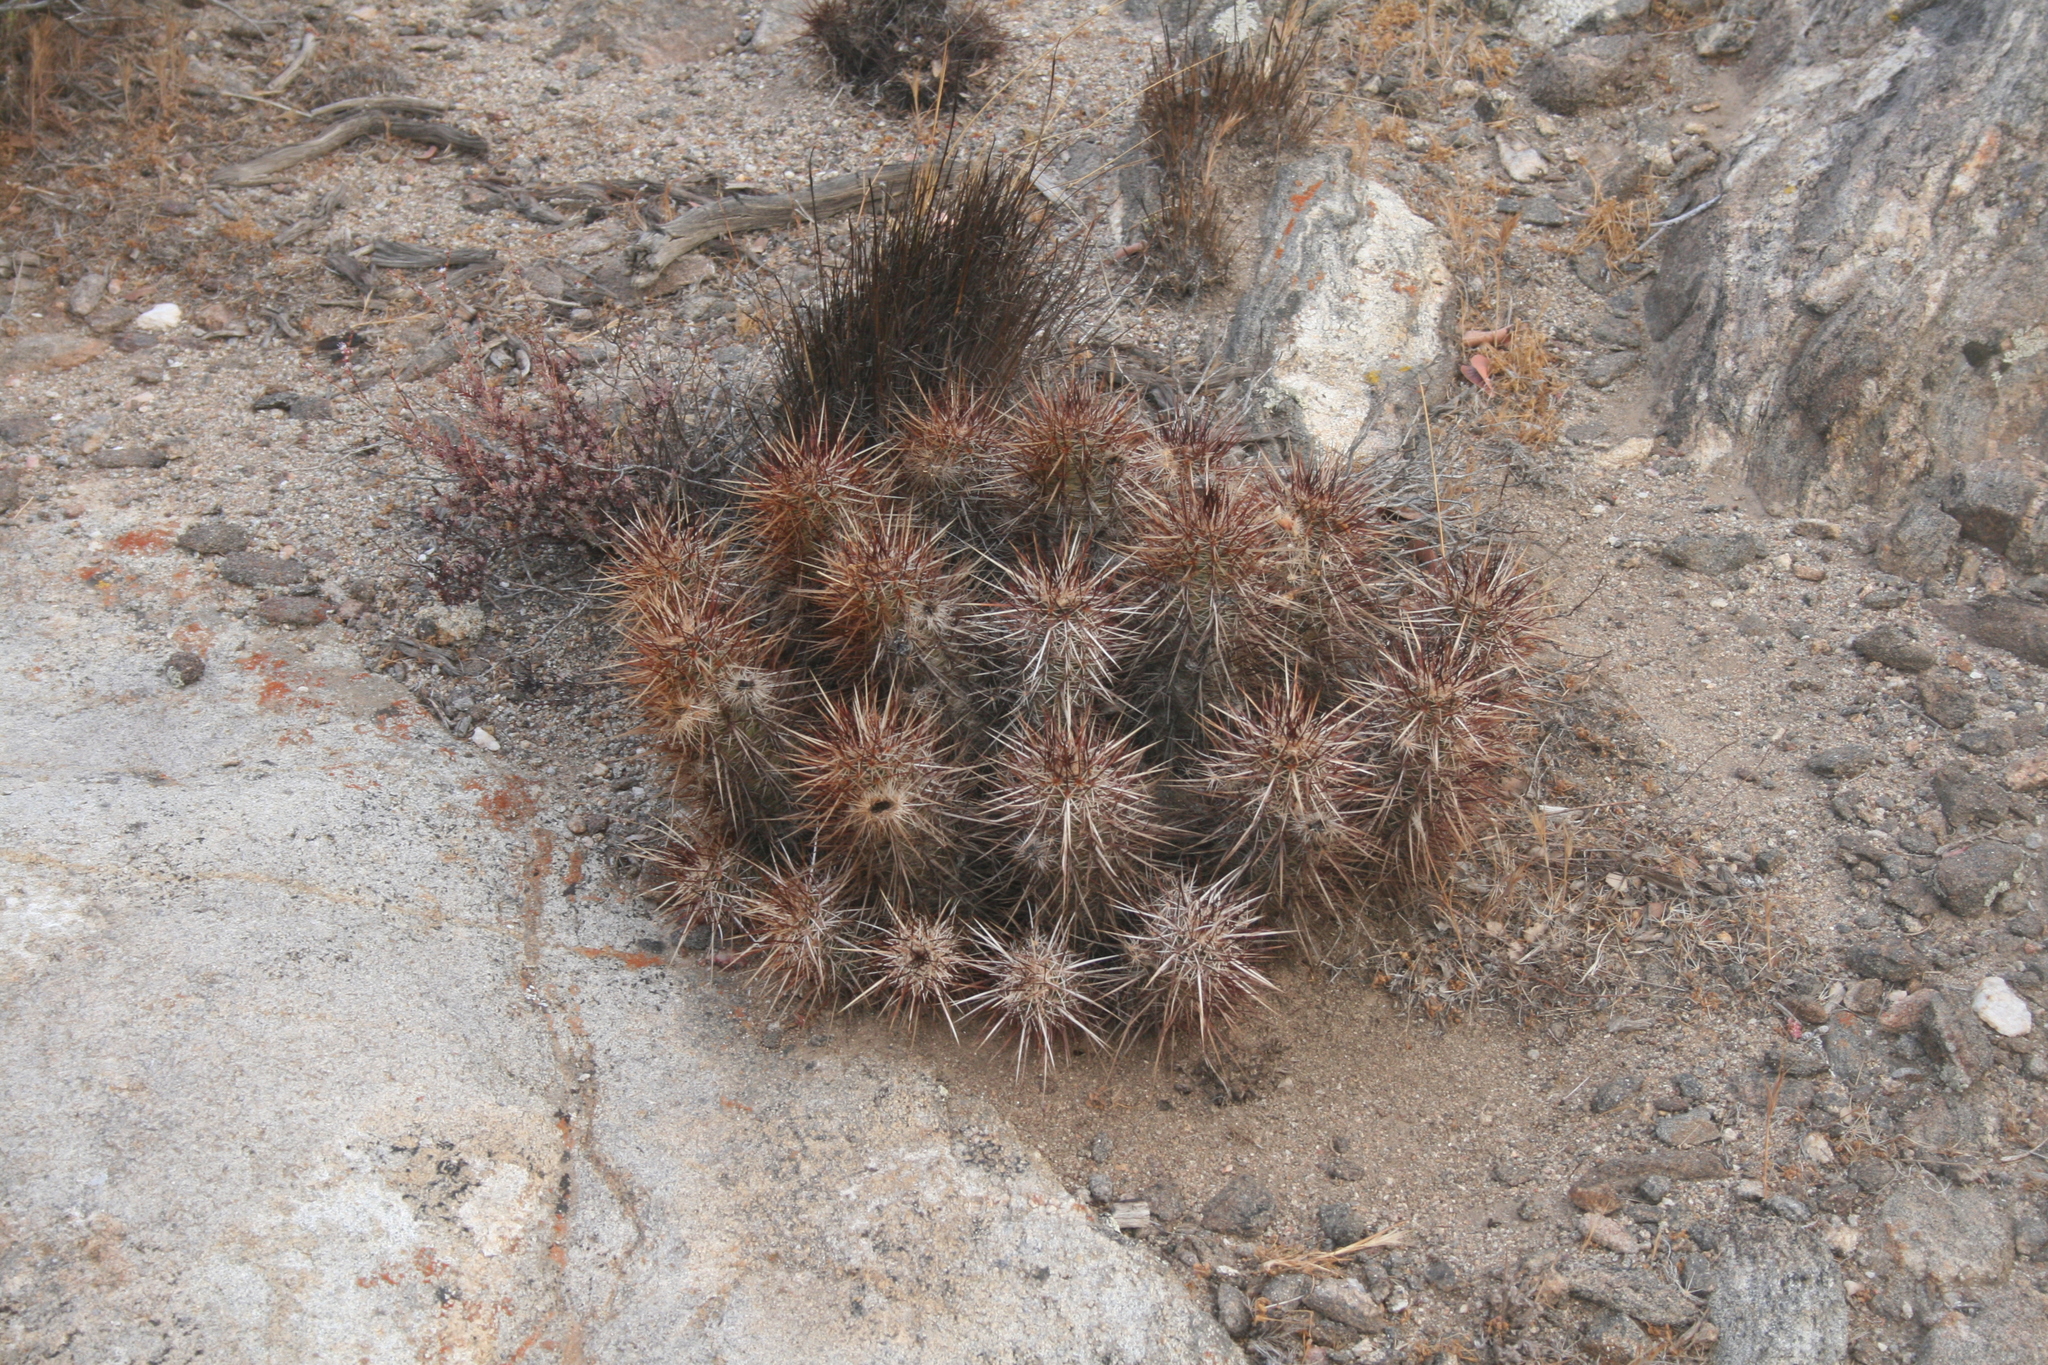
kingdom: Plantae
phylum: Tracheophyta
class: Magnoliopsida
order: Caryophyllales
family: Cactaceae
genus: Echinocereus
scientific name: Echinocereus engelmannii
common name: Engelmann's hedgehog cactus
